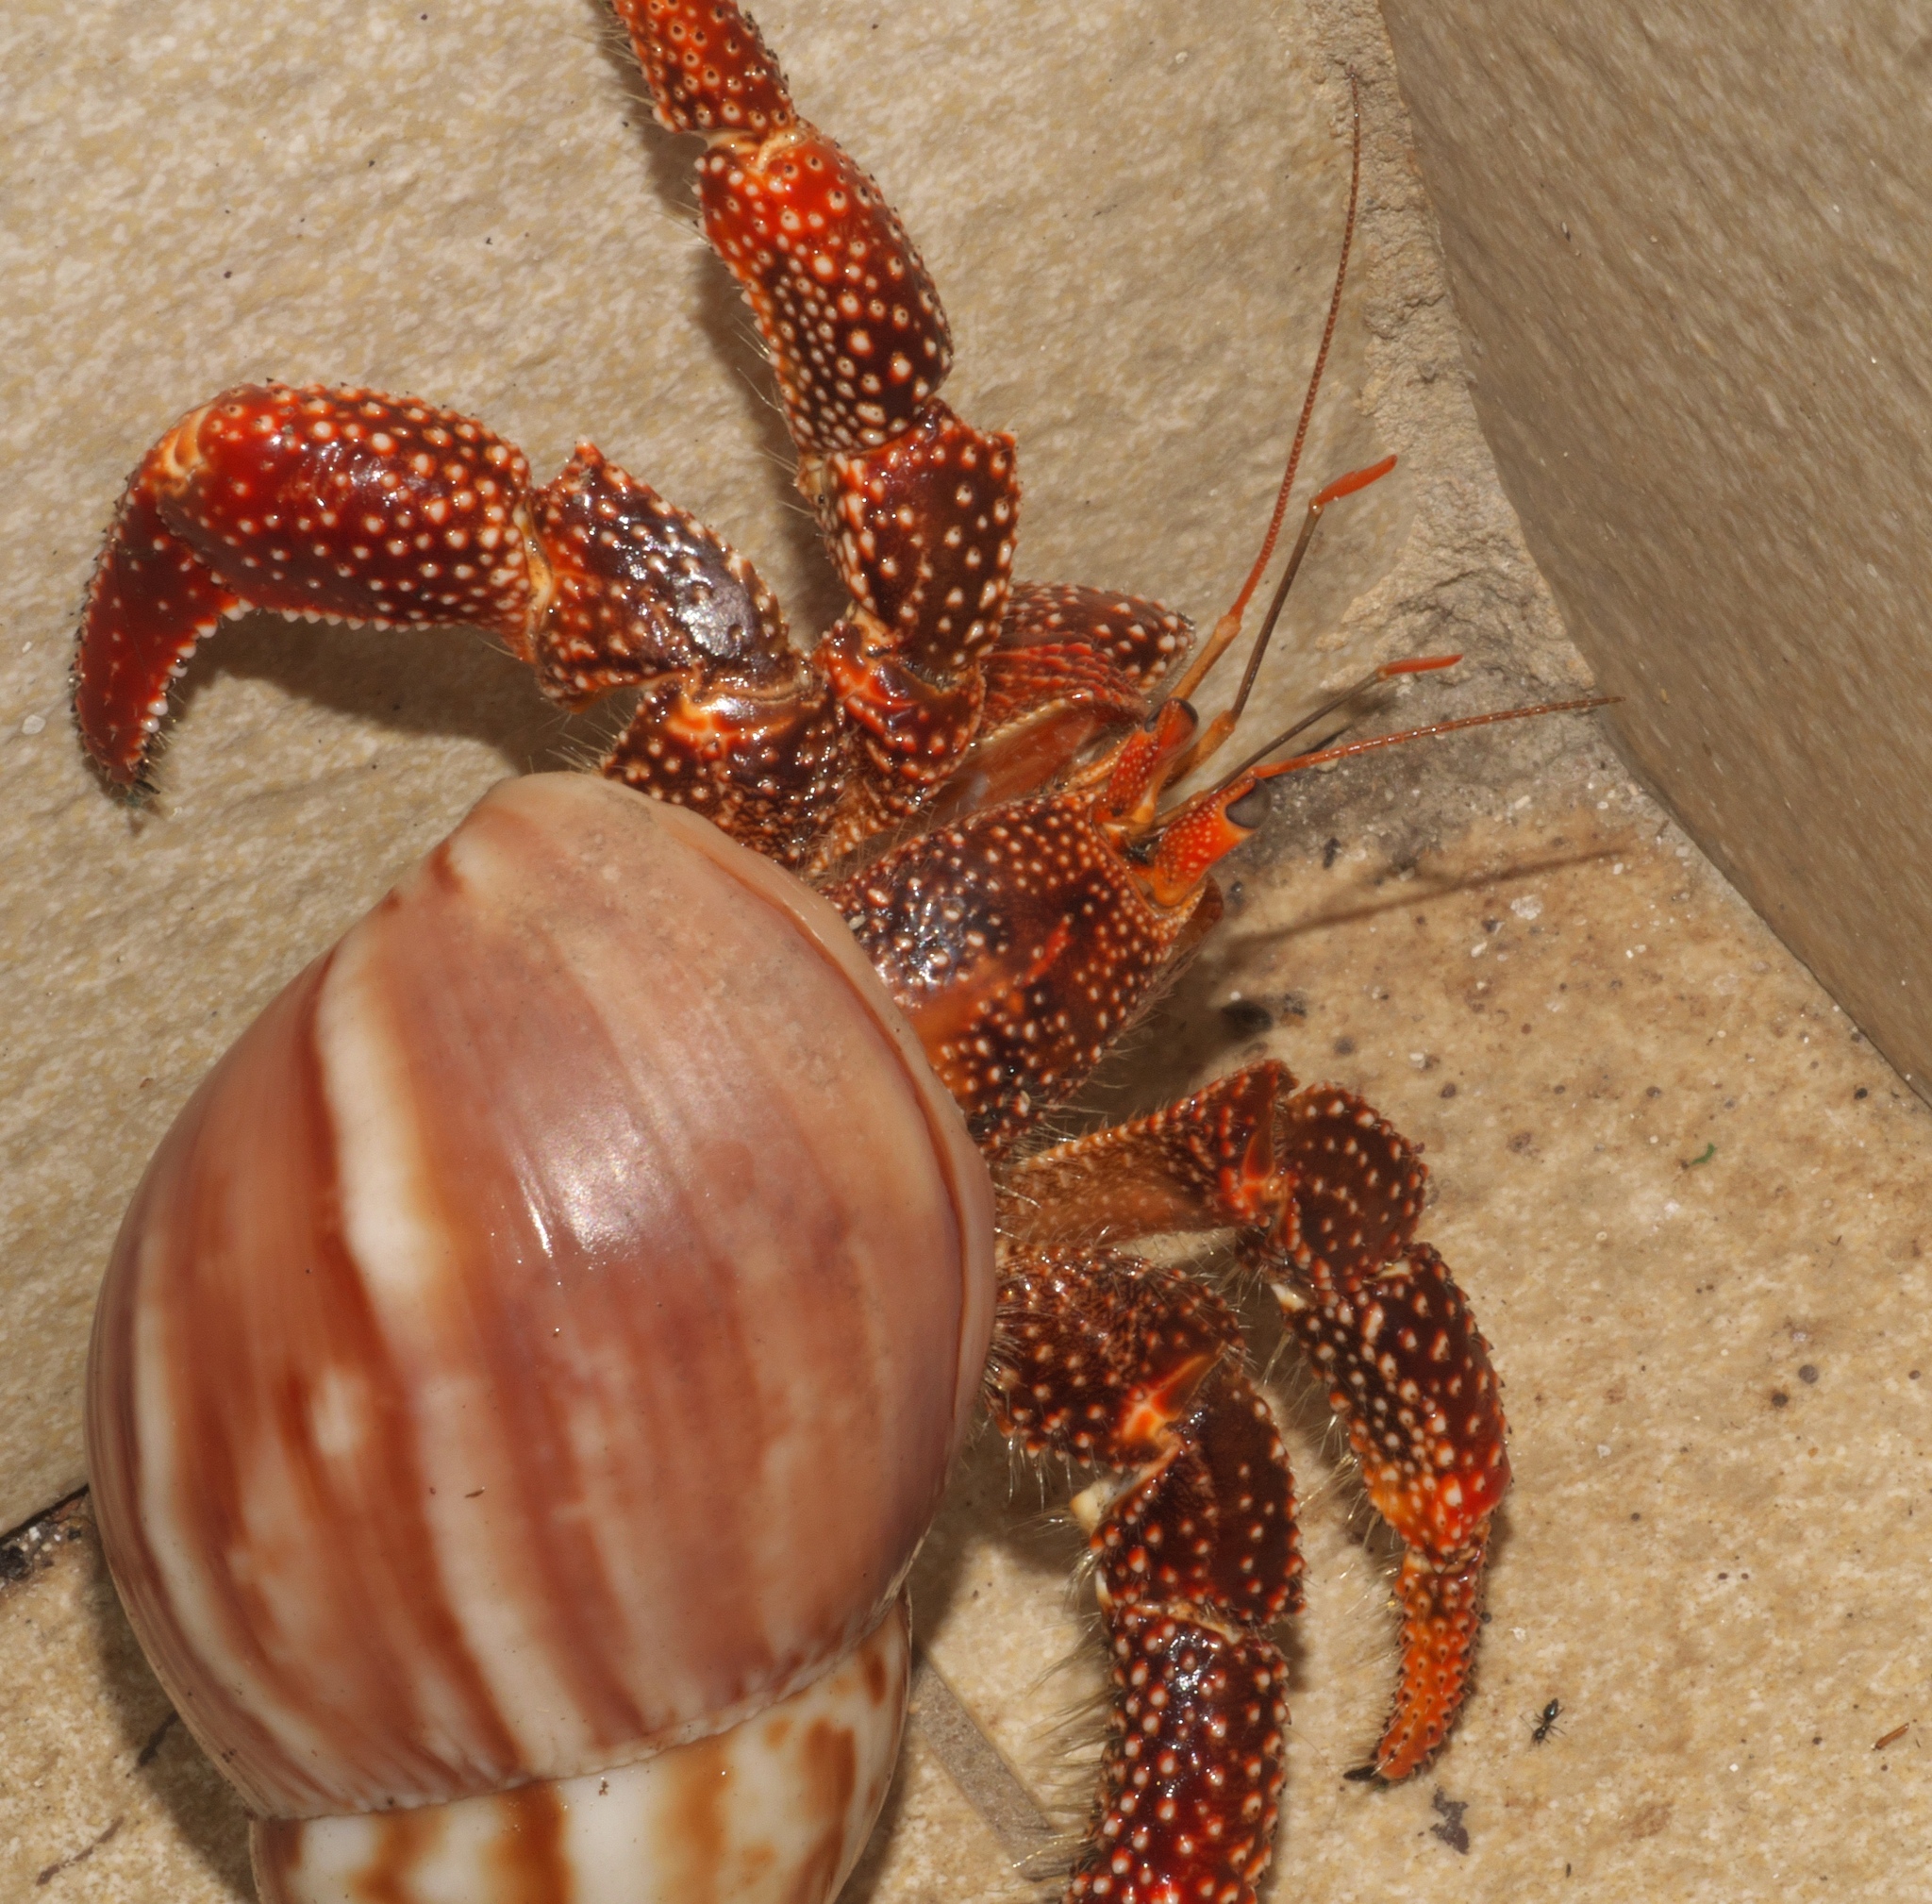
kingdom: Animalia
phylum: Arthropoda
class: Malacostraca
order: Decapoda
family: Coenobitidae
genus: Coenobita
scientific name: Coenobita perlatus
